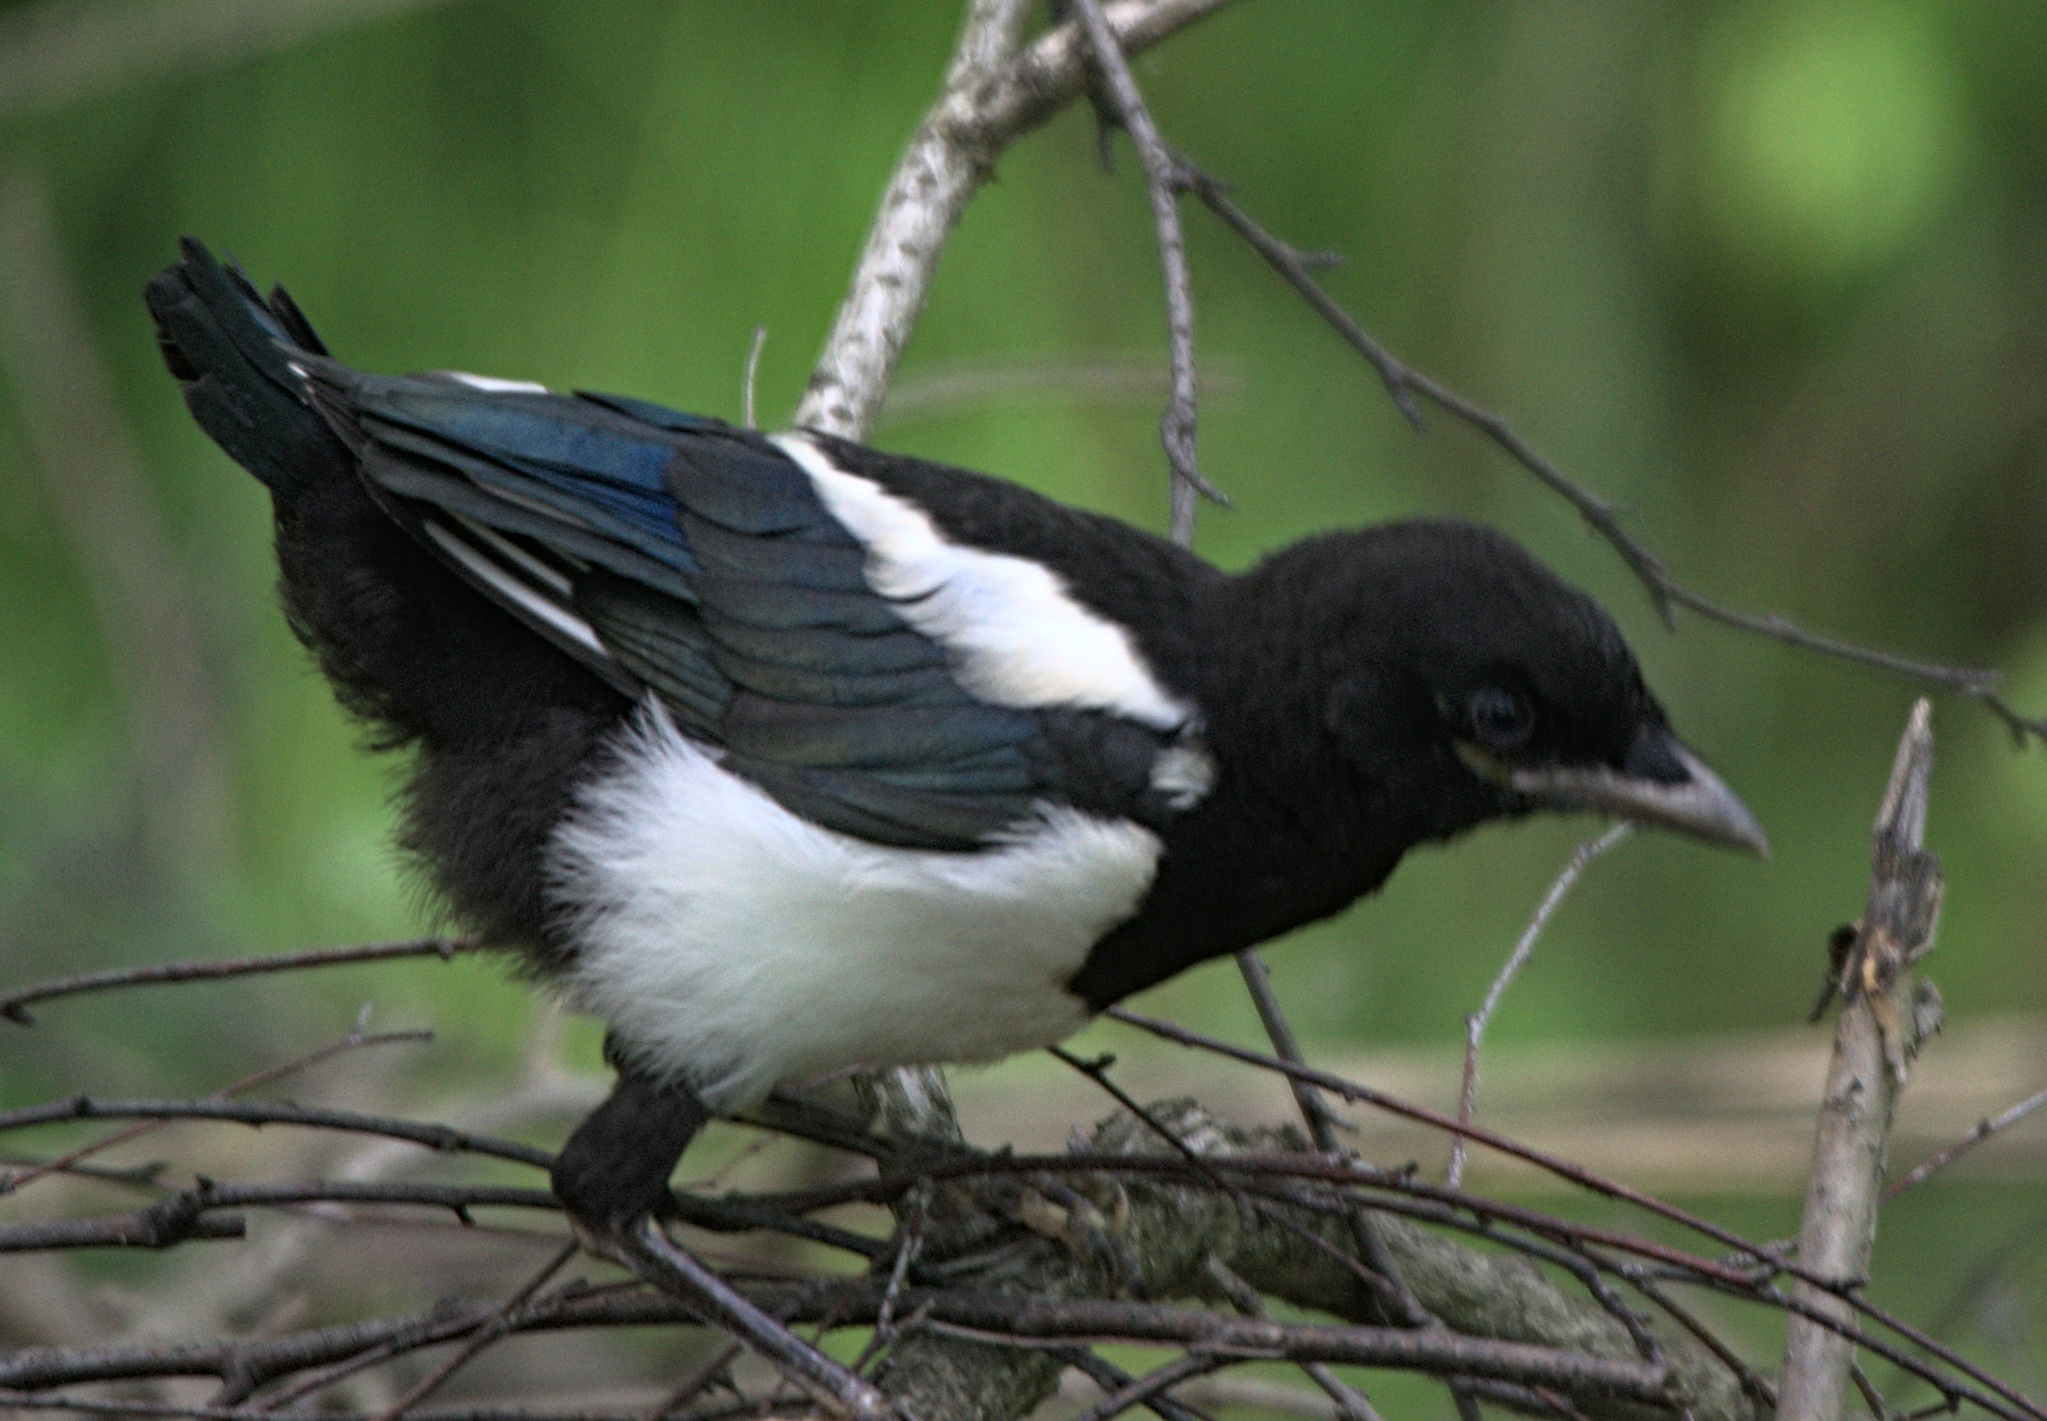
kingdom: Animalia
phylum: Chordata
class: Aves
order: Passeriformes
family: Corvidae
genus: Pica
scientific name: Pica pica
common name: Eurasian magpie
